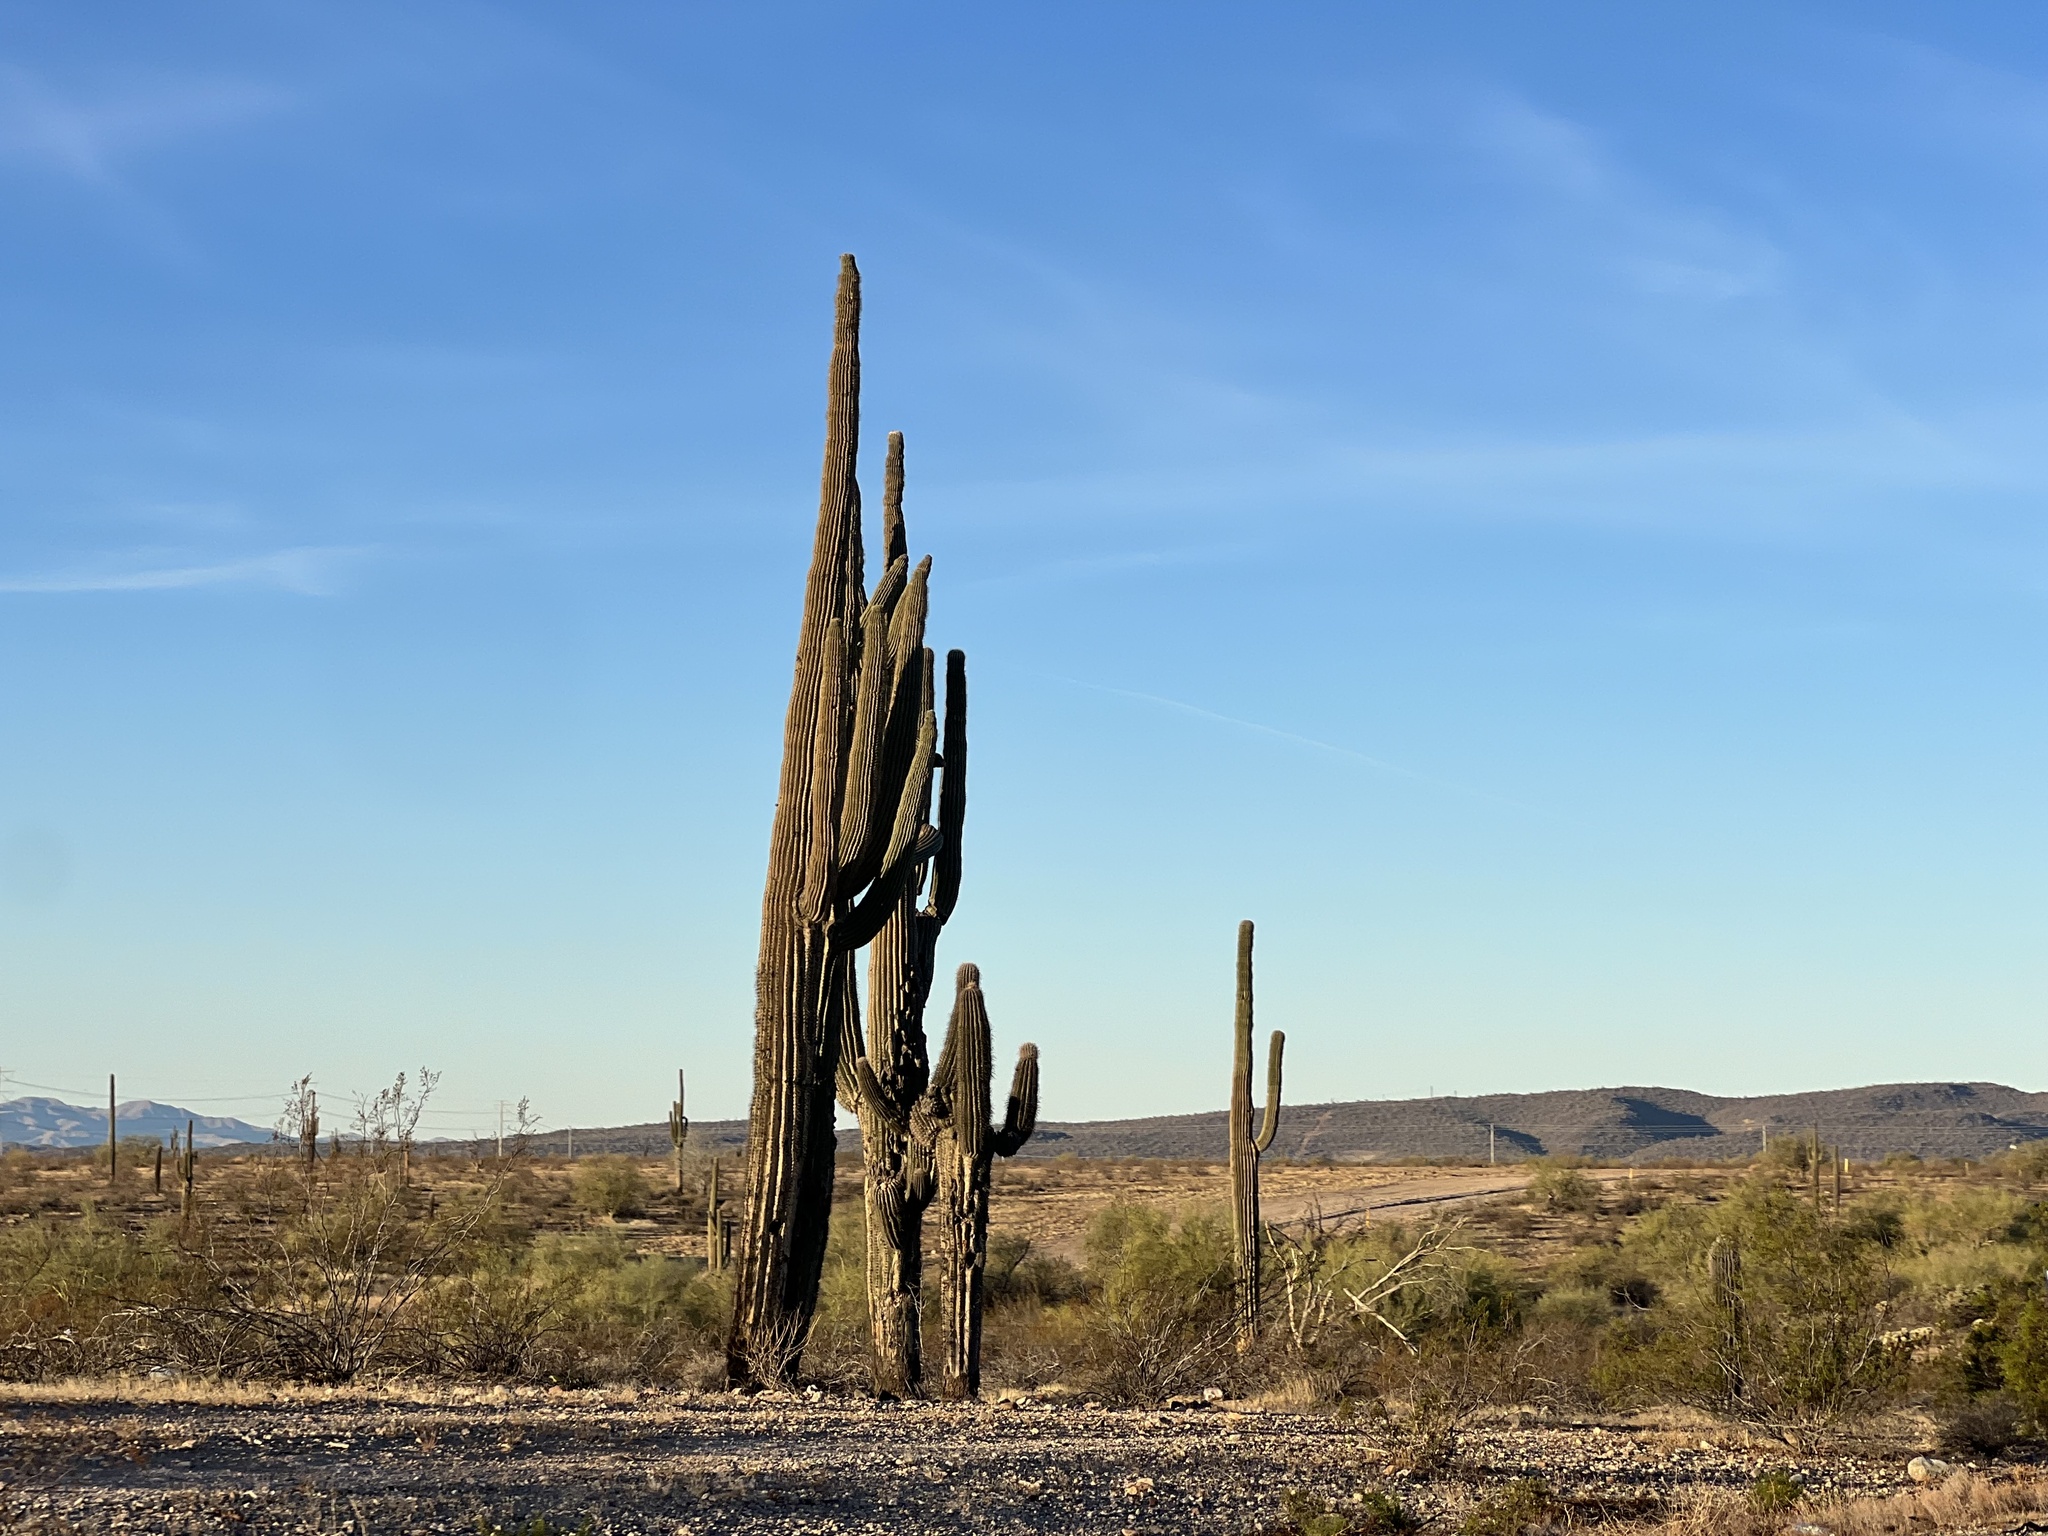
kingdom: Plantae
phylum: Tracheophyta
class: Magnoliopsida
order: Caryophyllales
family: Cactaceae
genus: Carnegiea
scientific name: Carnegiea gigantea
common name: Saguaro
